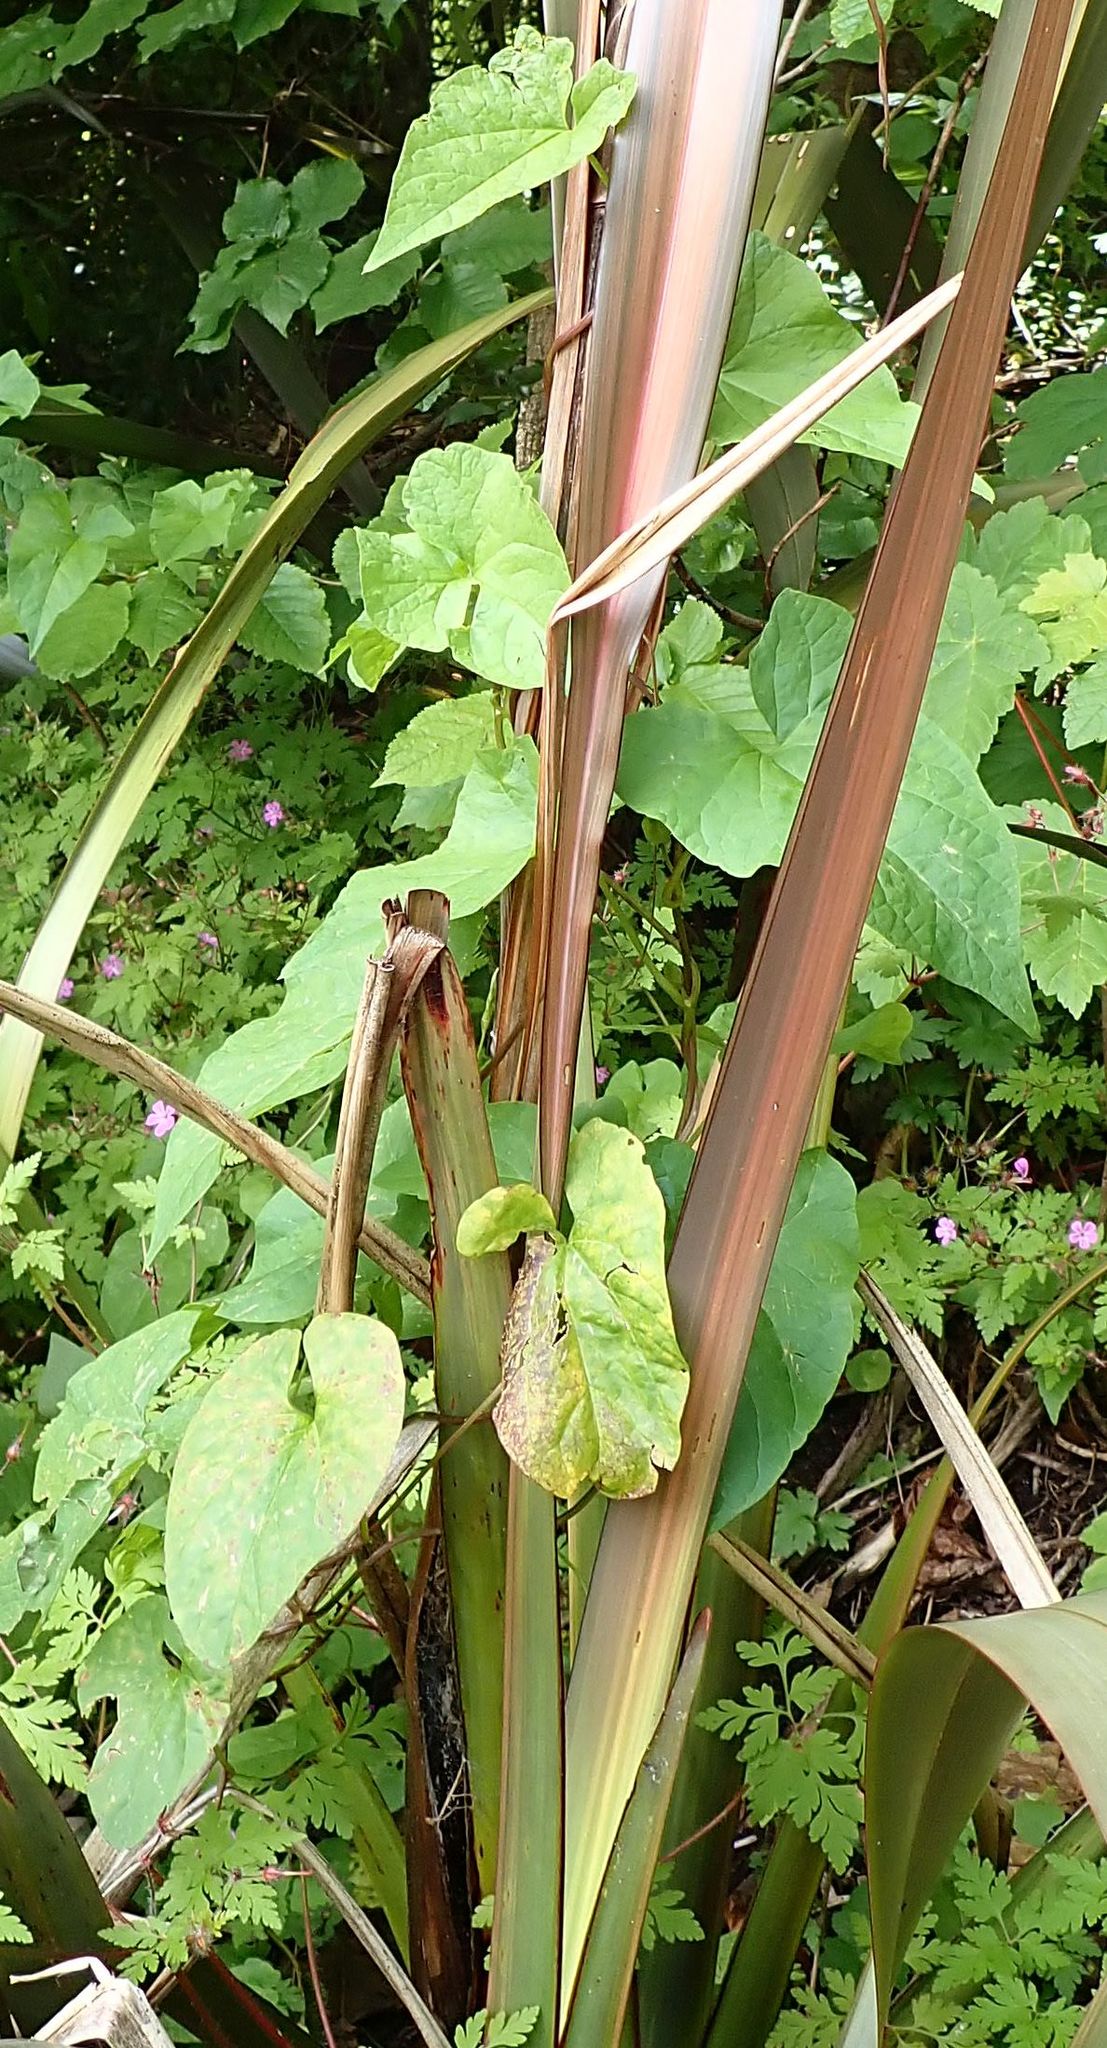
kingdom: Plantae
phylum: Tracheophyta
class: Magnoliopsida
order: Solanales
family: Convolvulaceae
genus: Calystegia
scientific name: Calystegia silvatica
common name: Large bindweed
